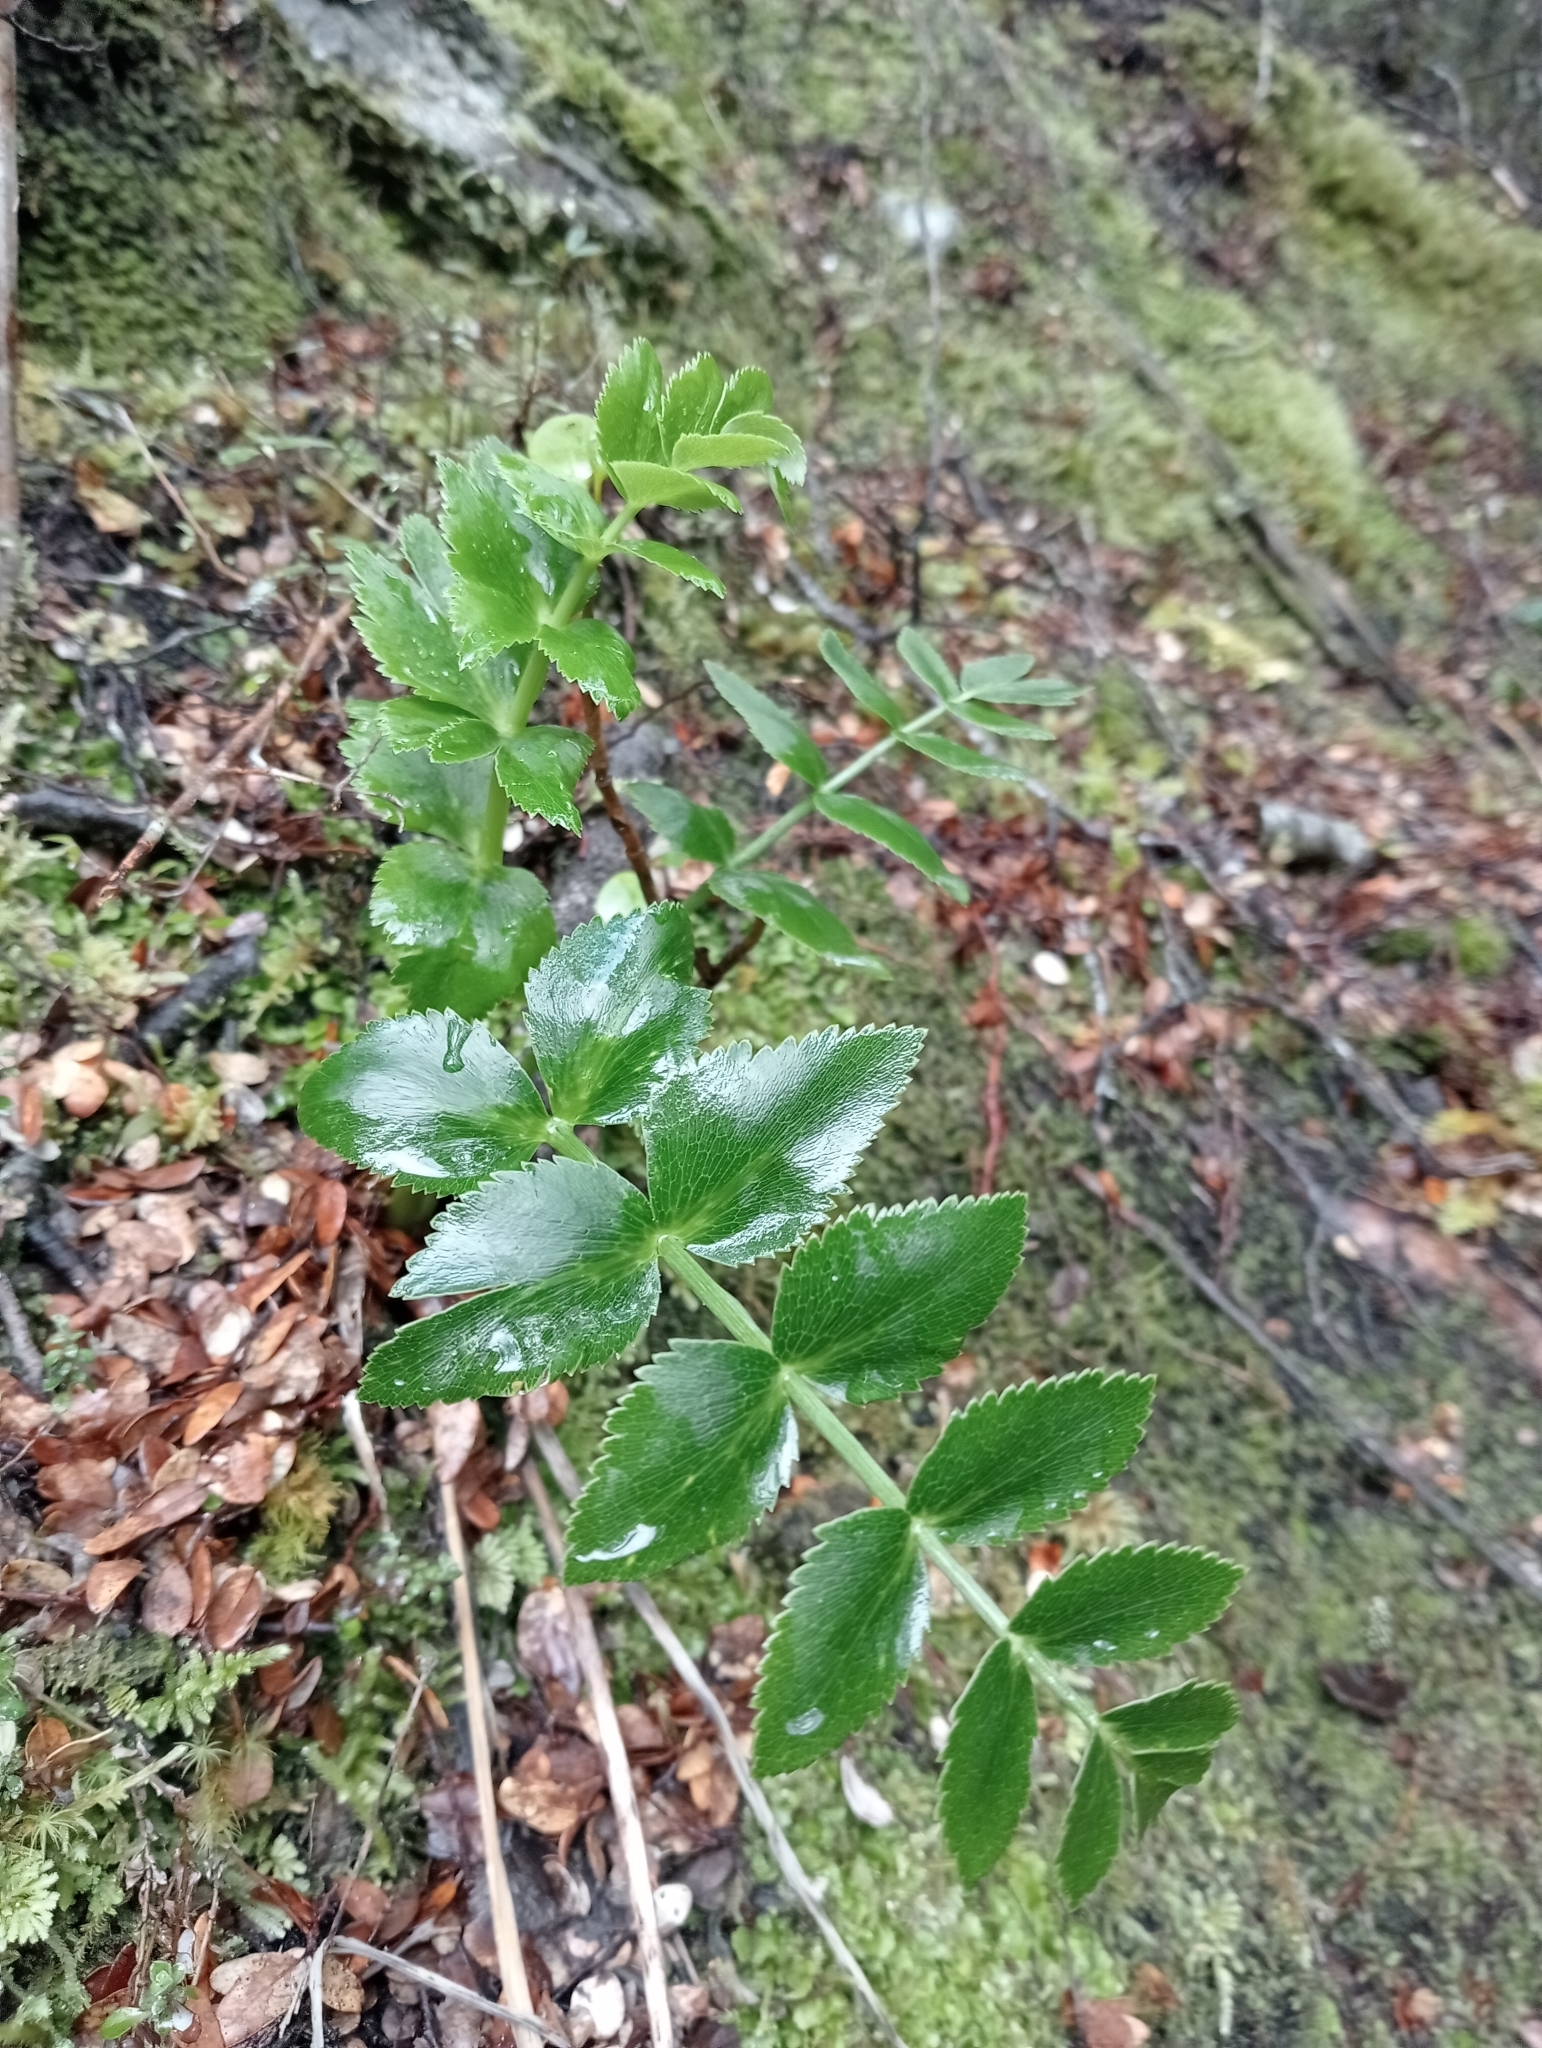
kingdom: Plantae
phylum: Tracheophyta
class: Magnoliopsida
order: Apiales
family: Apiaceae
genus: Gingidia
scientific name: Gingidia montana
